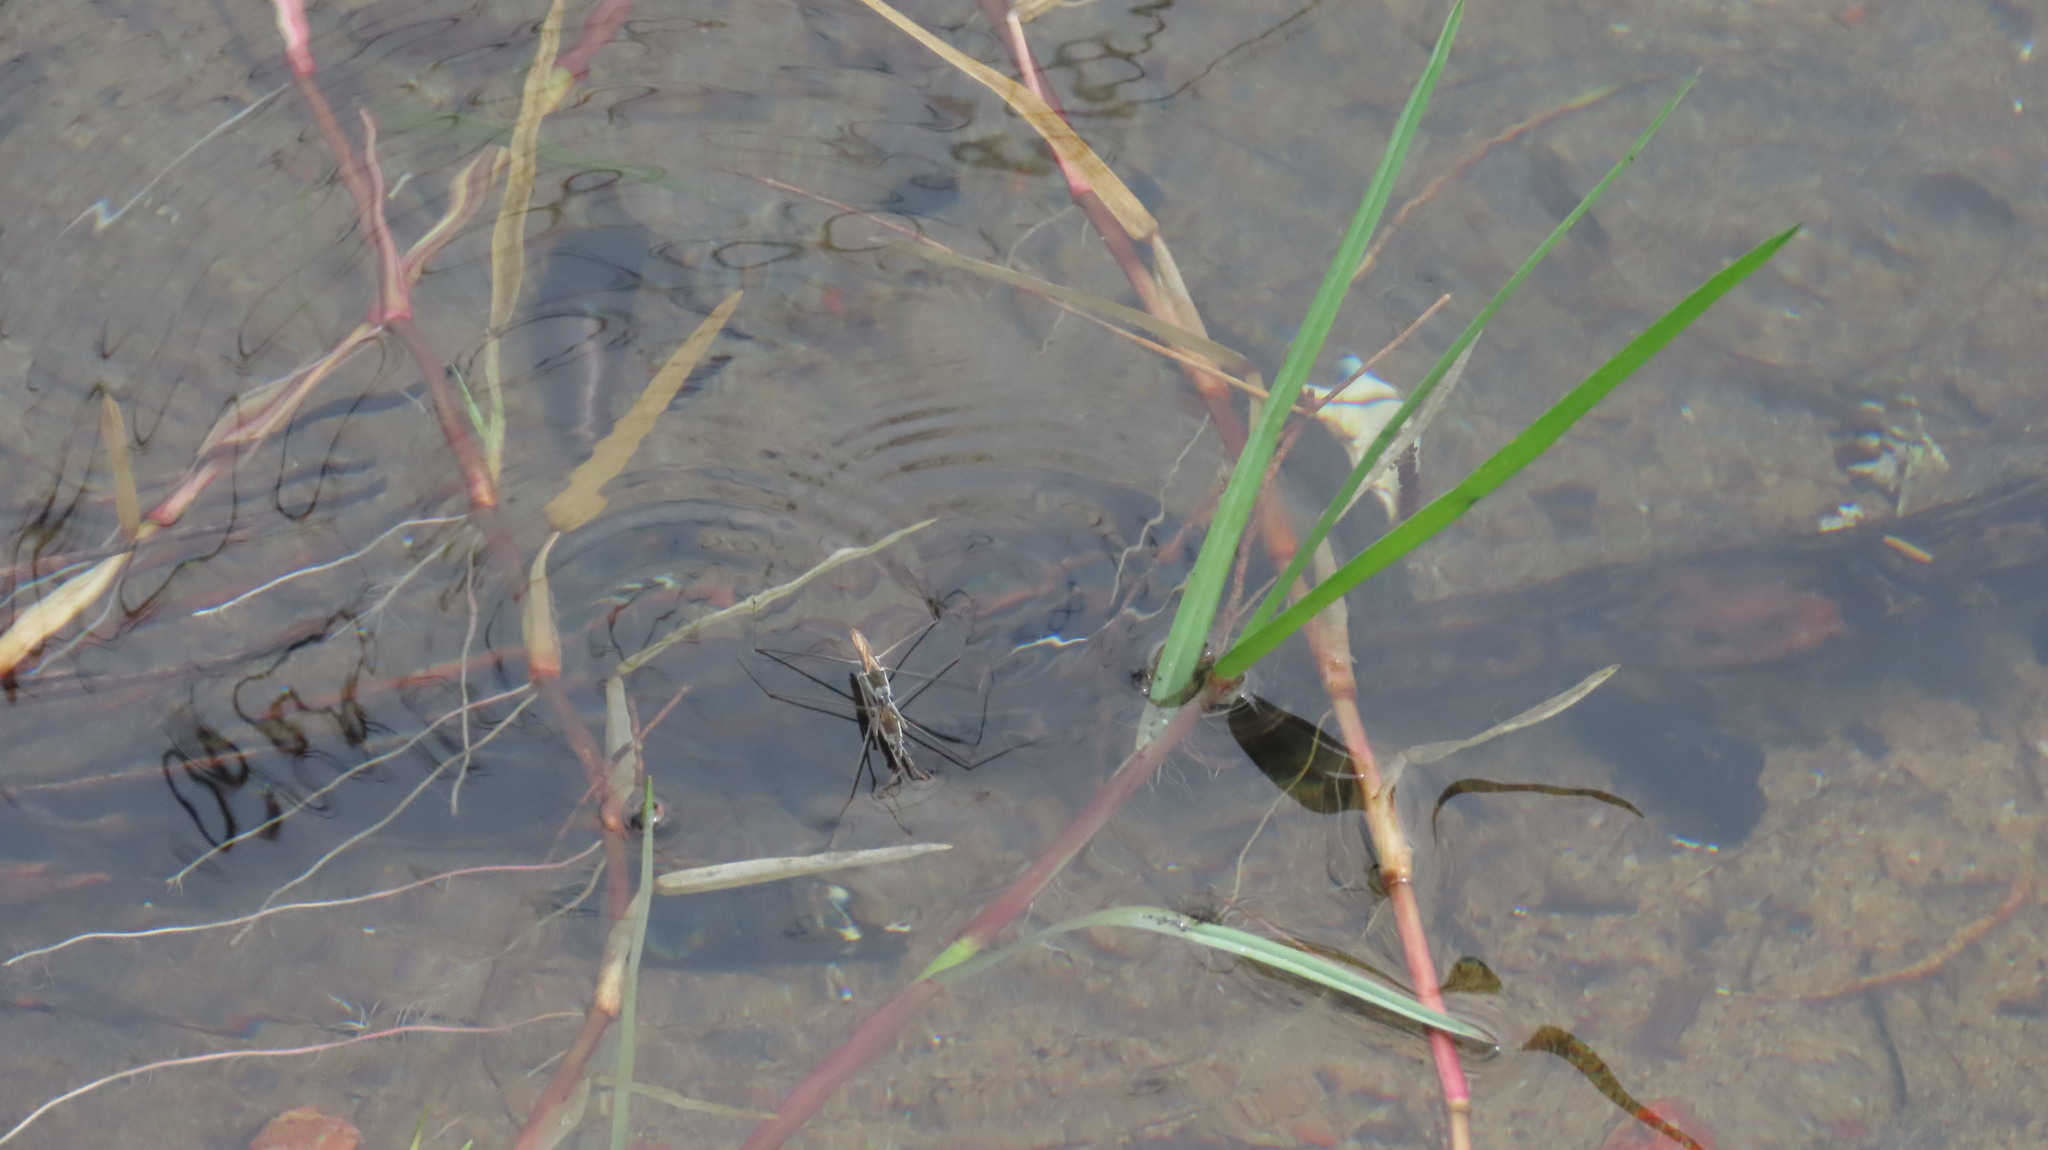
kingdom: Animalia
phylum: Arthropoda
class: Insecta
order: Hemiptera
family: Gerridae
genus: Aquarius
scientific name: Aquarius adelaidis
